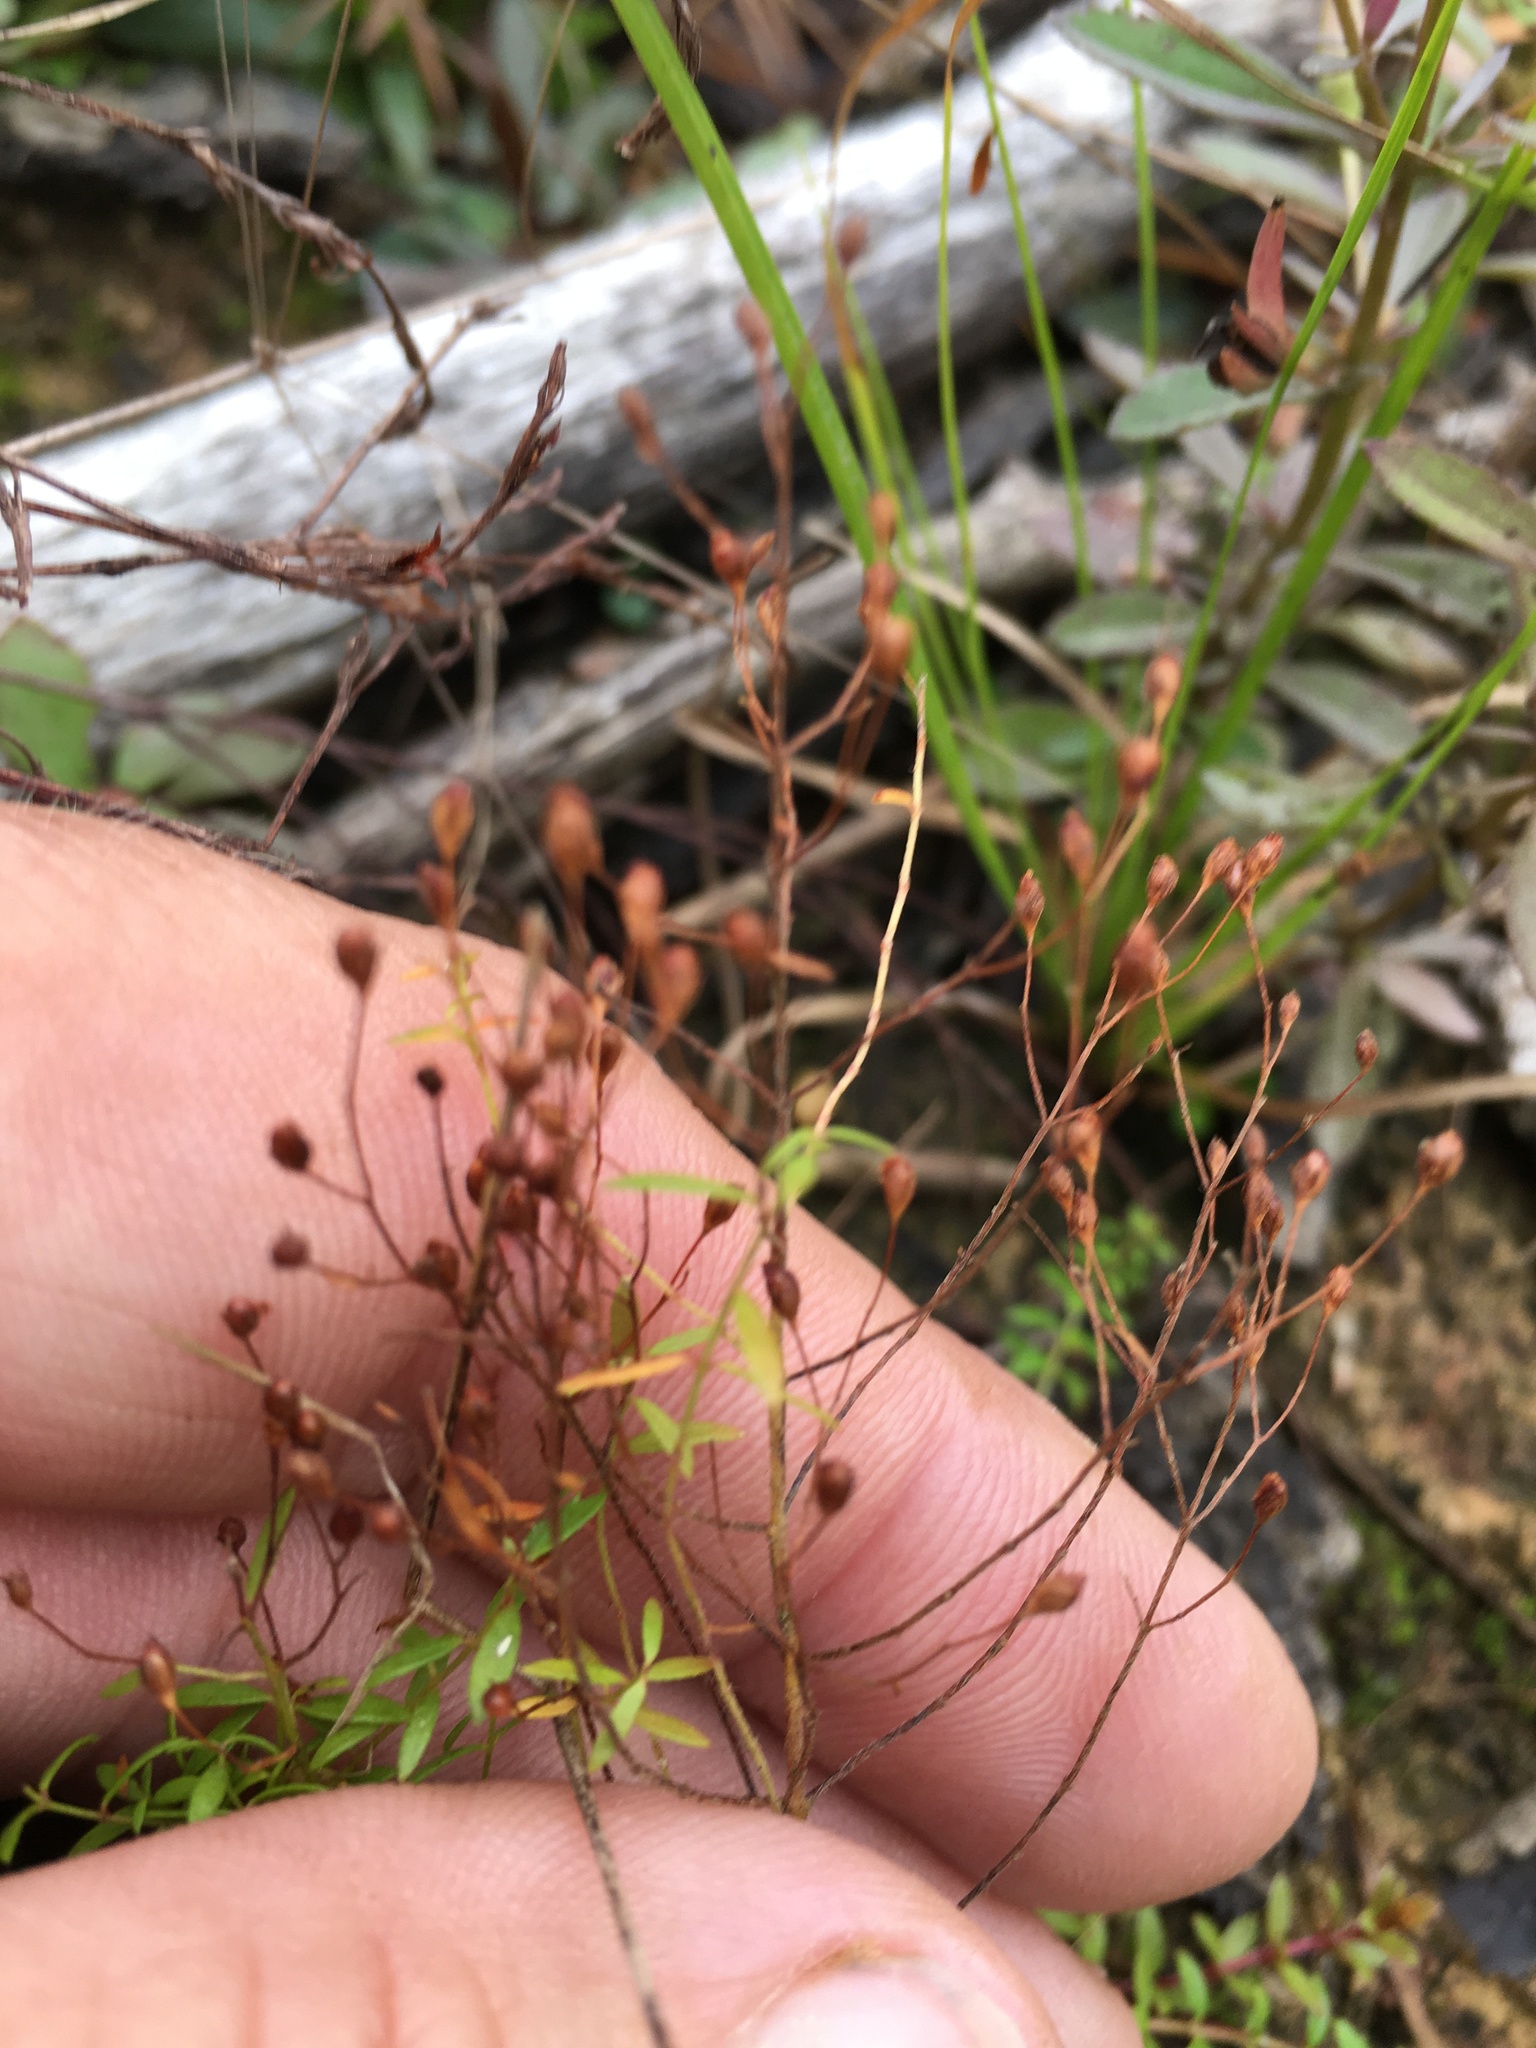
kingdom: Plantae
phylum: Tracheophyta
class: Magnoliopsida
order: Malvales
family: Cistaceae
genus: Lechea
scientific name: Lechea racemulosa
